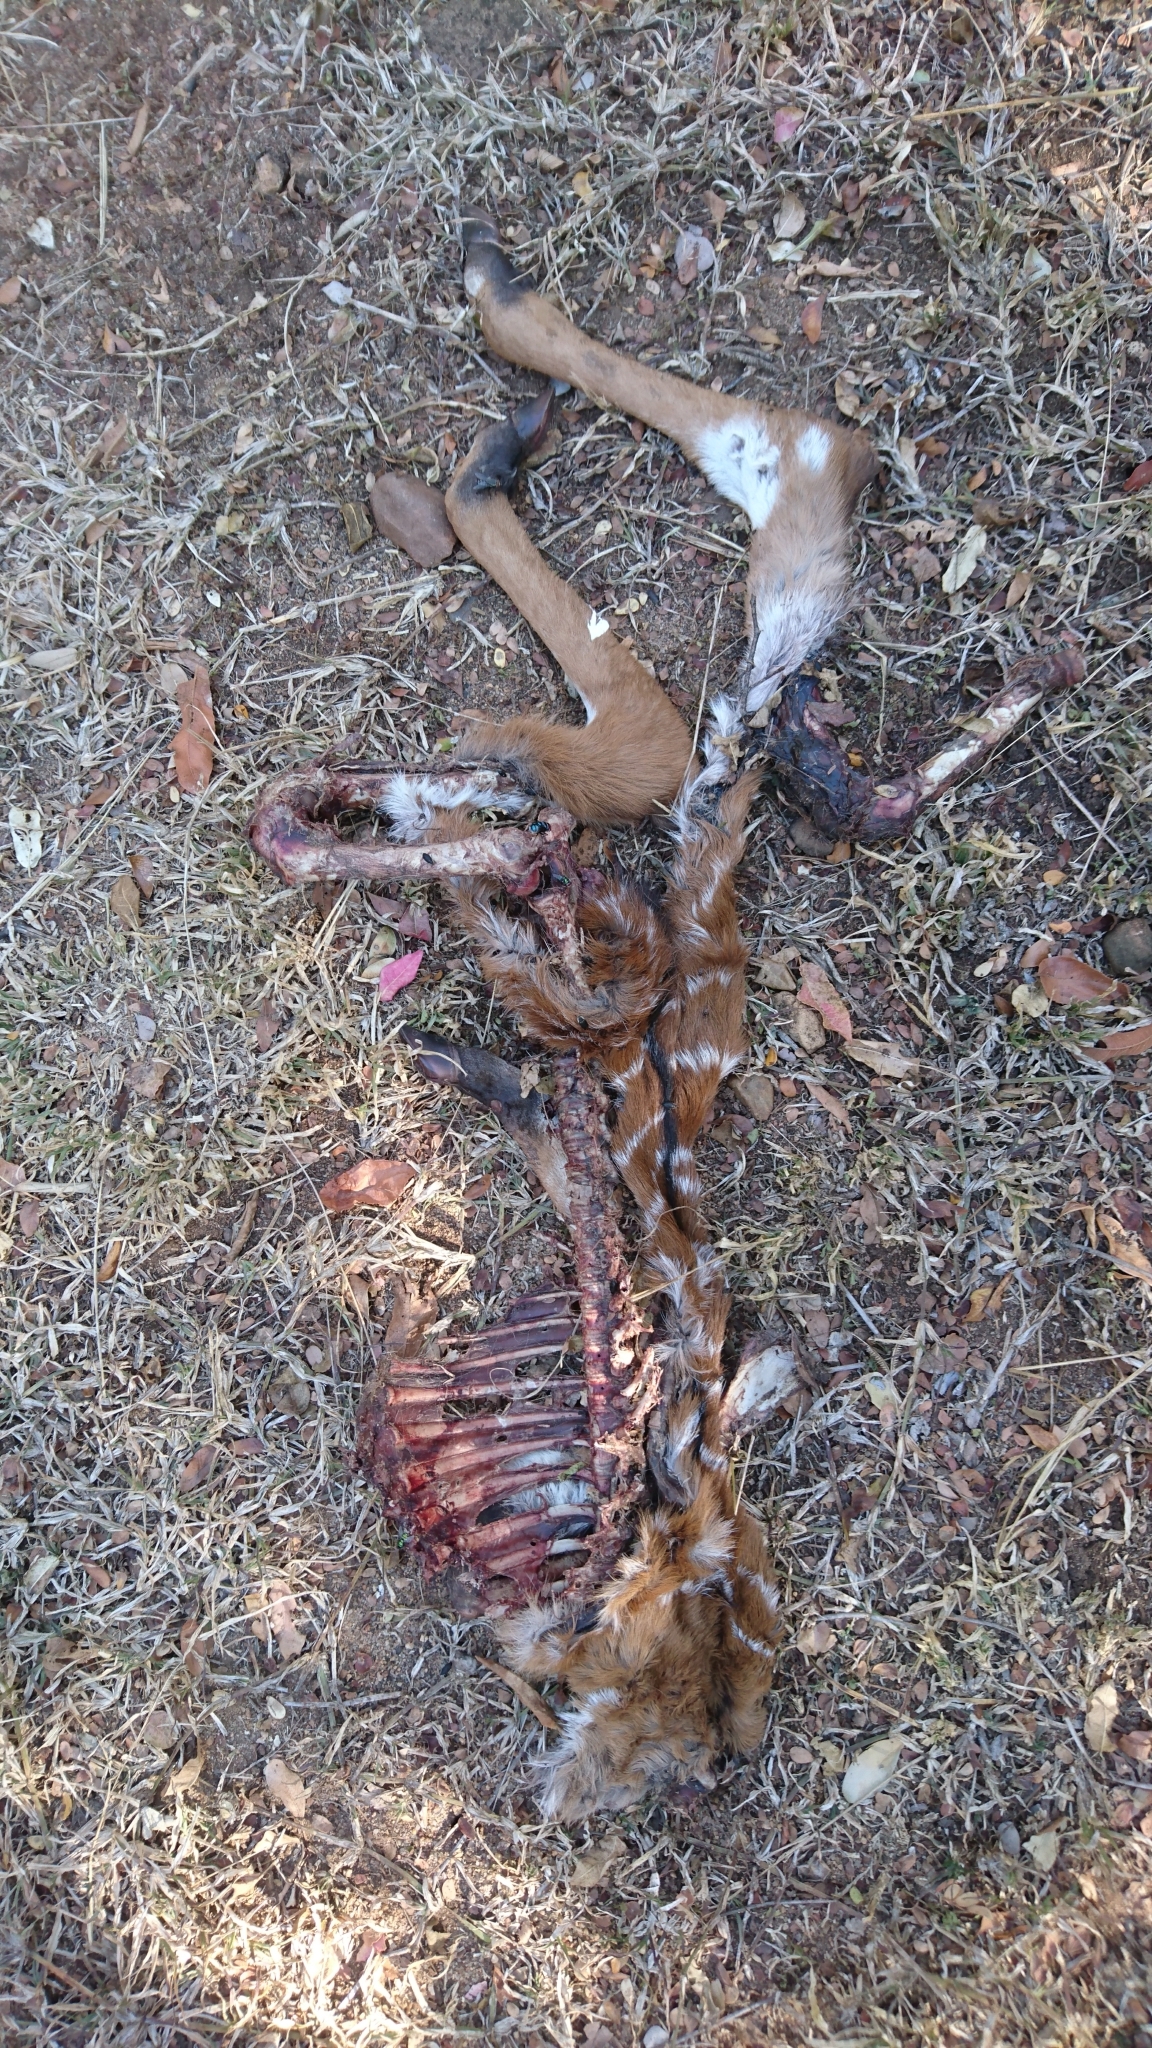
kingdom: Animalia
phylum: Chordata
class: Mammalia
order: Artiodactyla
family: Bovidae
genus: Tragelaphus
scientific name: Tragelaphus angasii
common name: Nyala
